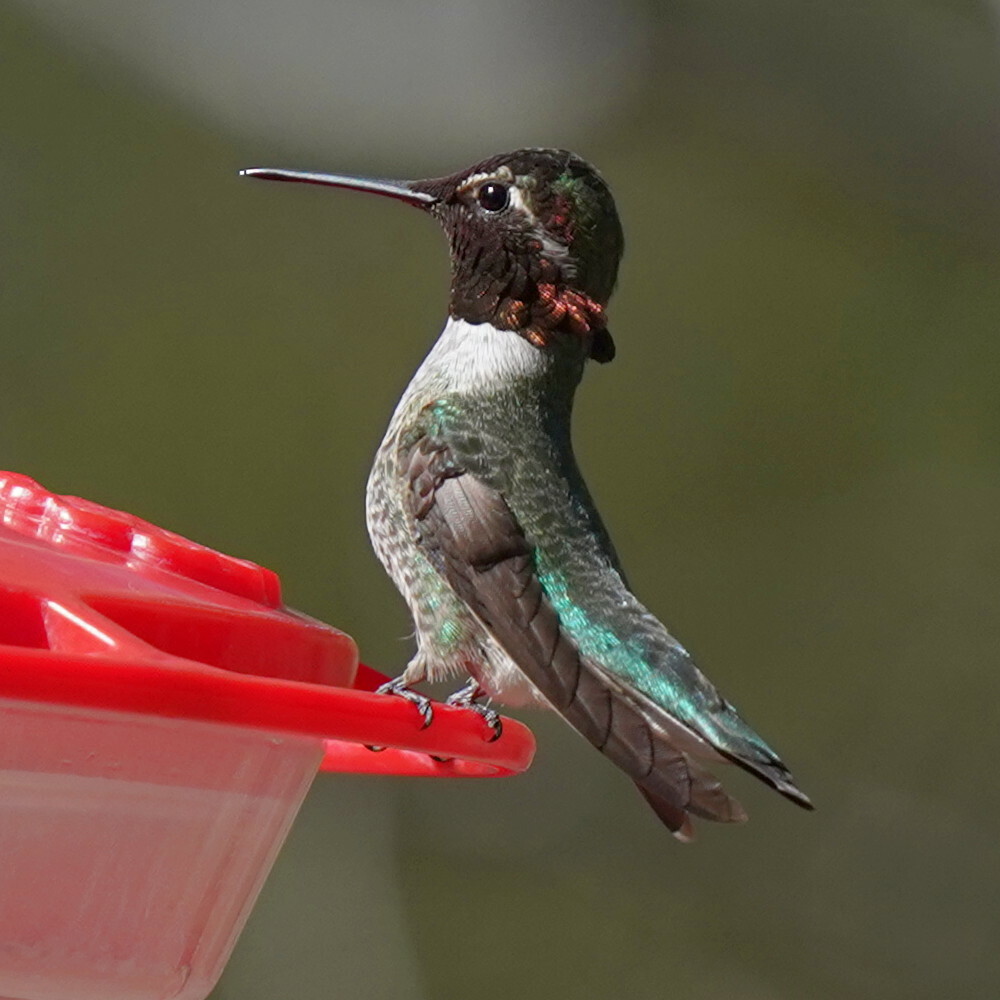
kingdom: Animalia
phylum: Chordata
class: Aves
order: Apodiformes
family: Trochilidae
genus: Calypte
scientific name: Calypte anna
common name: Anna's hummingbird
